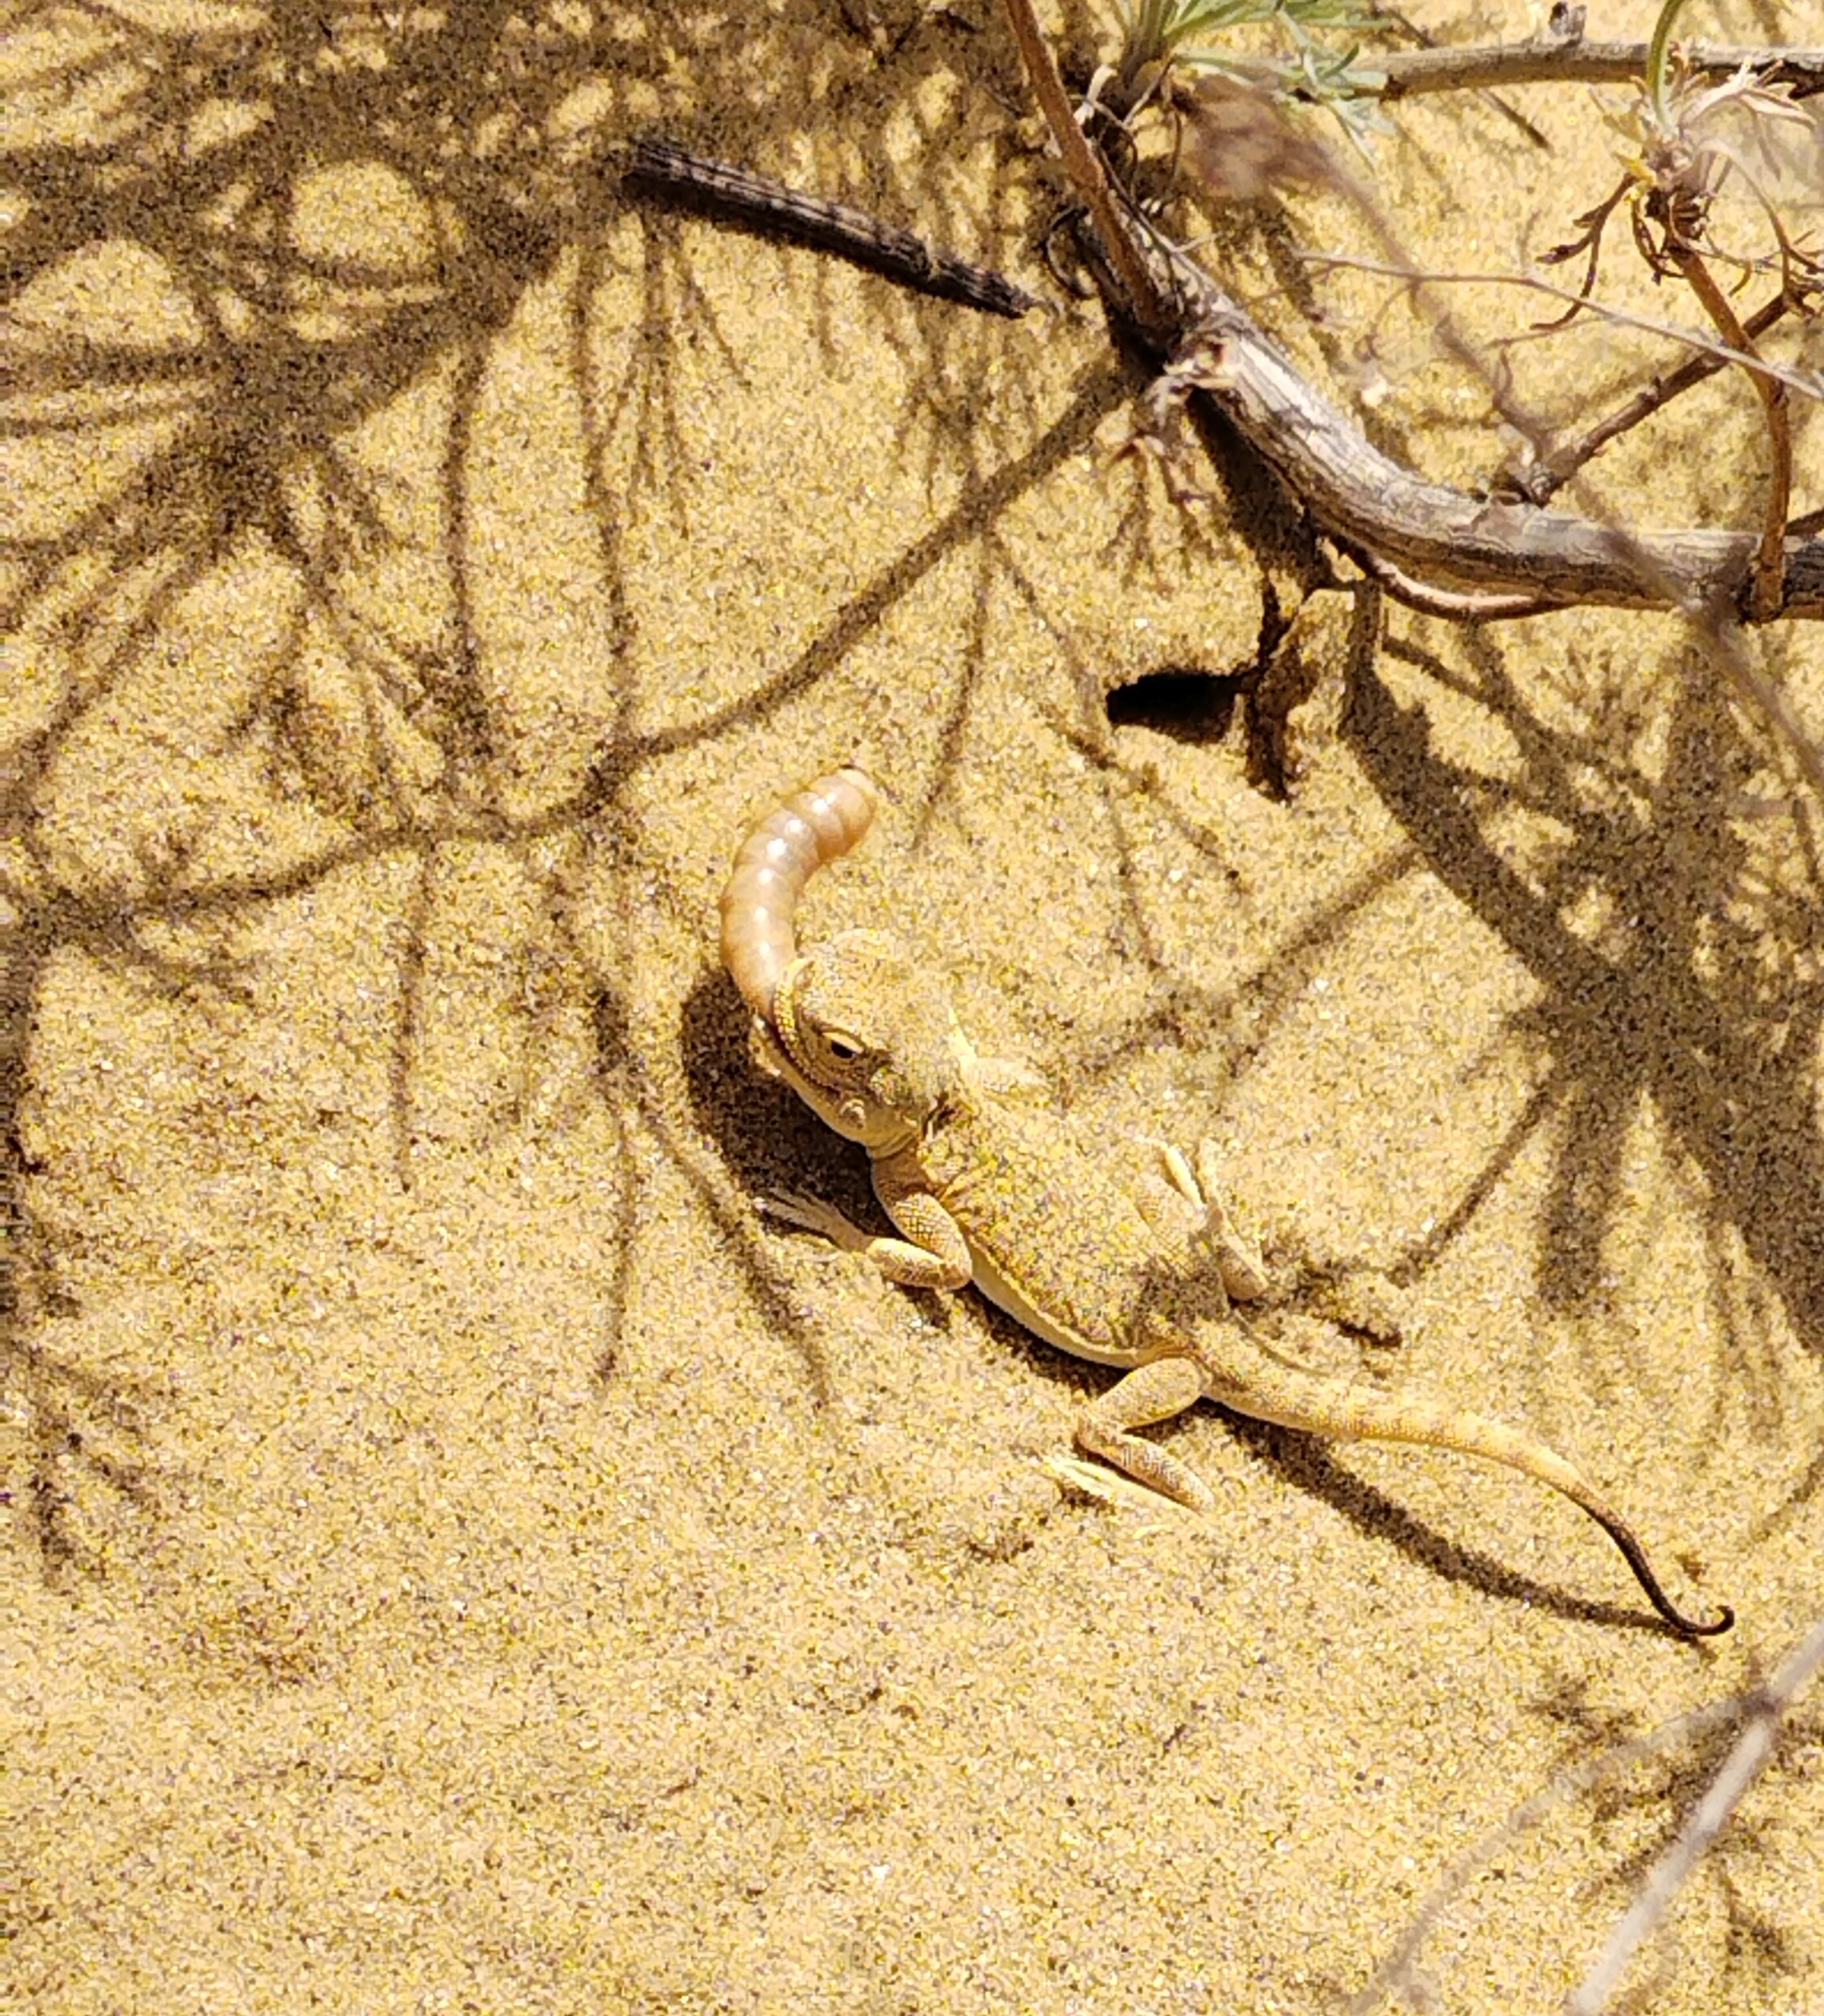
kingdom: Animalia
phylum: Chordata
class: Squamata
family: Agamidae
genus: Phrynocephalus
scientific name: Phrynocephalus mystaceus
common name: Secret toadhead agama
